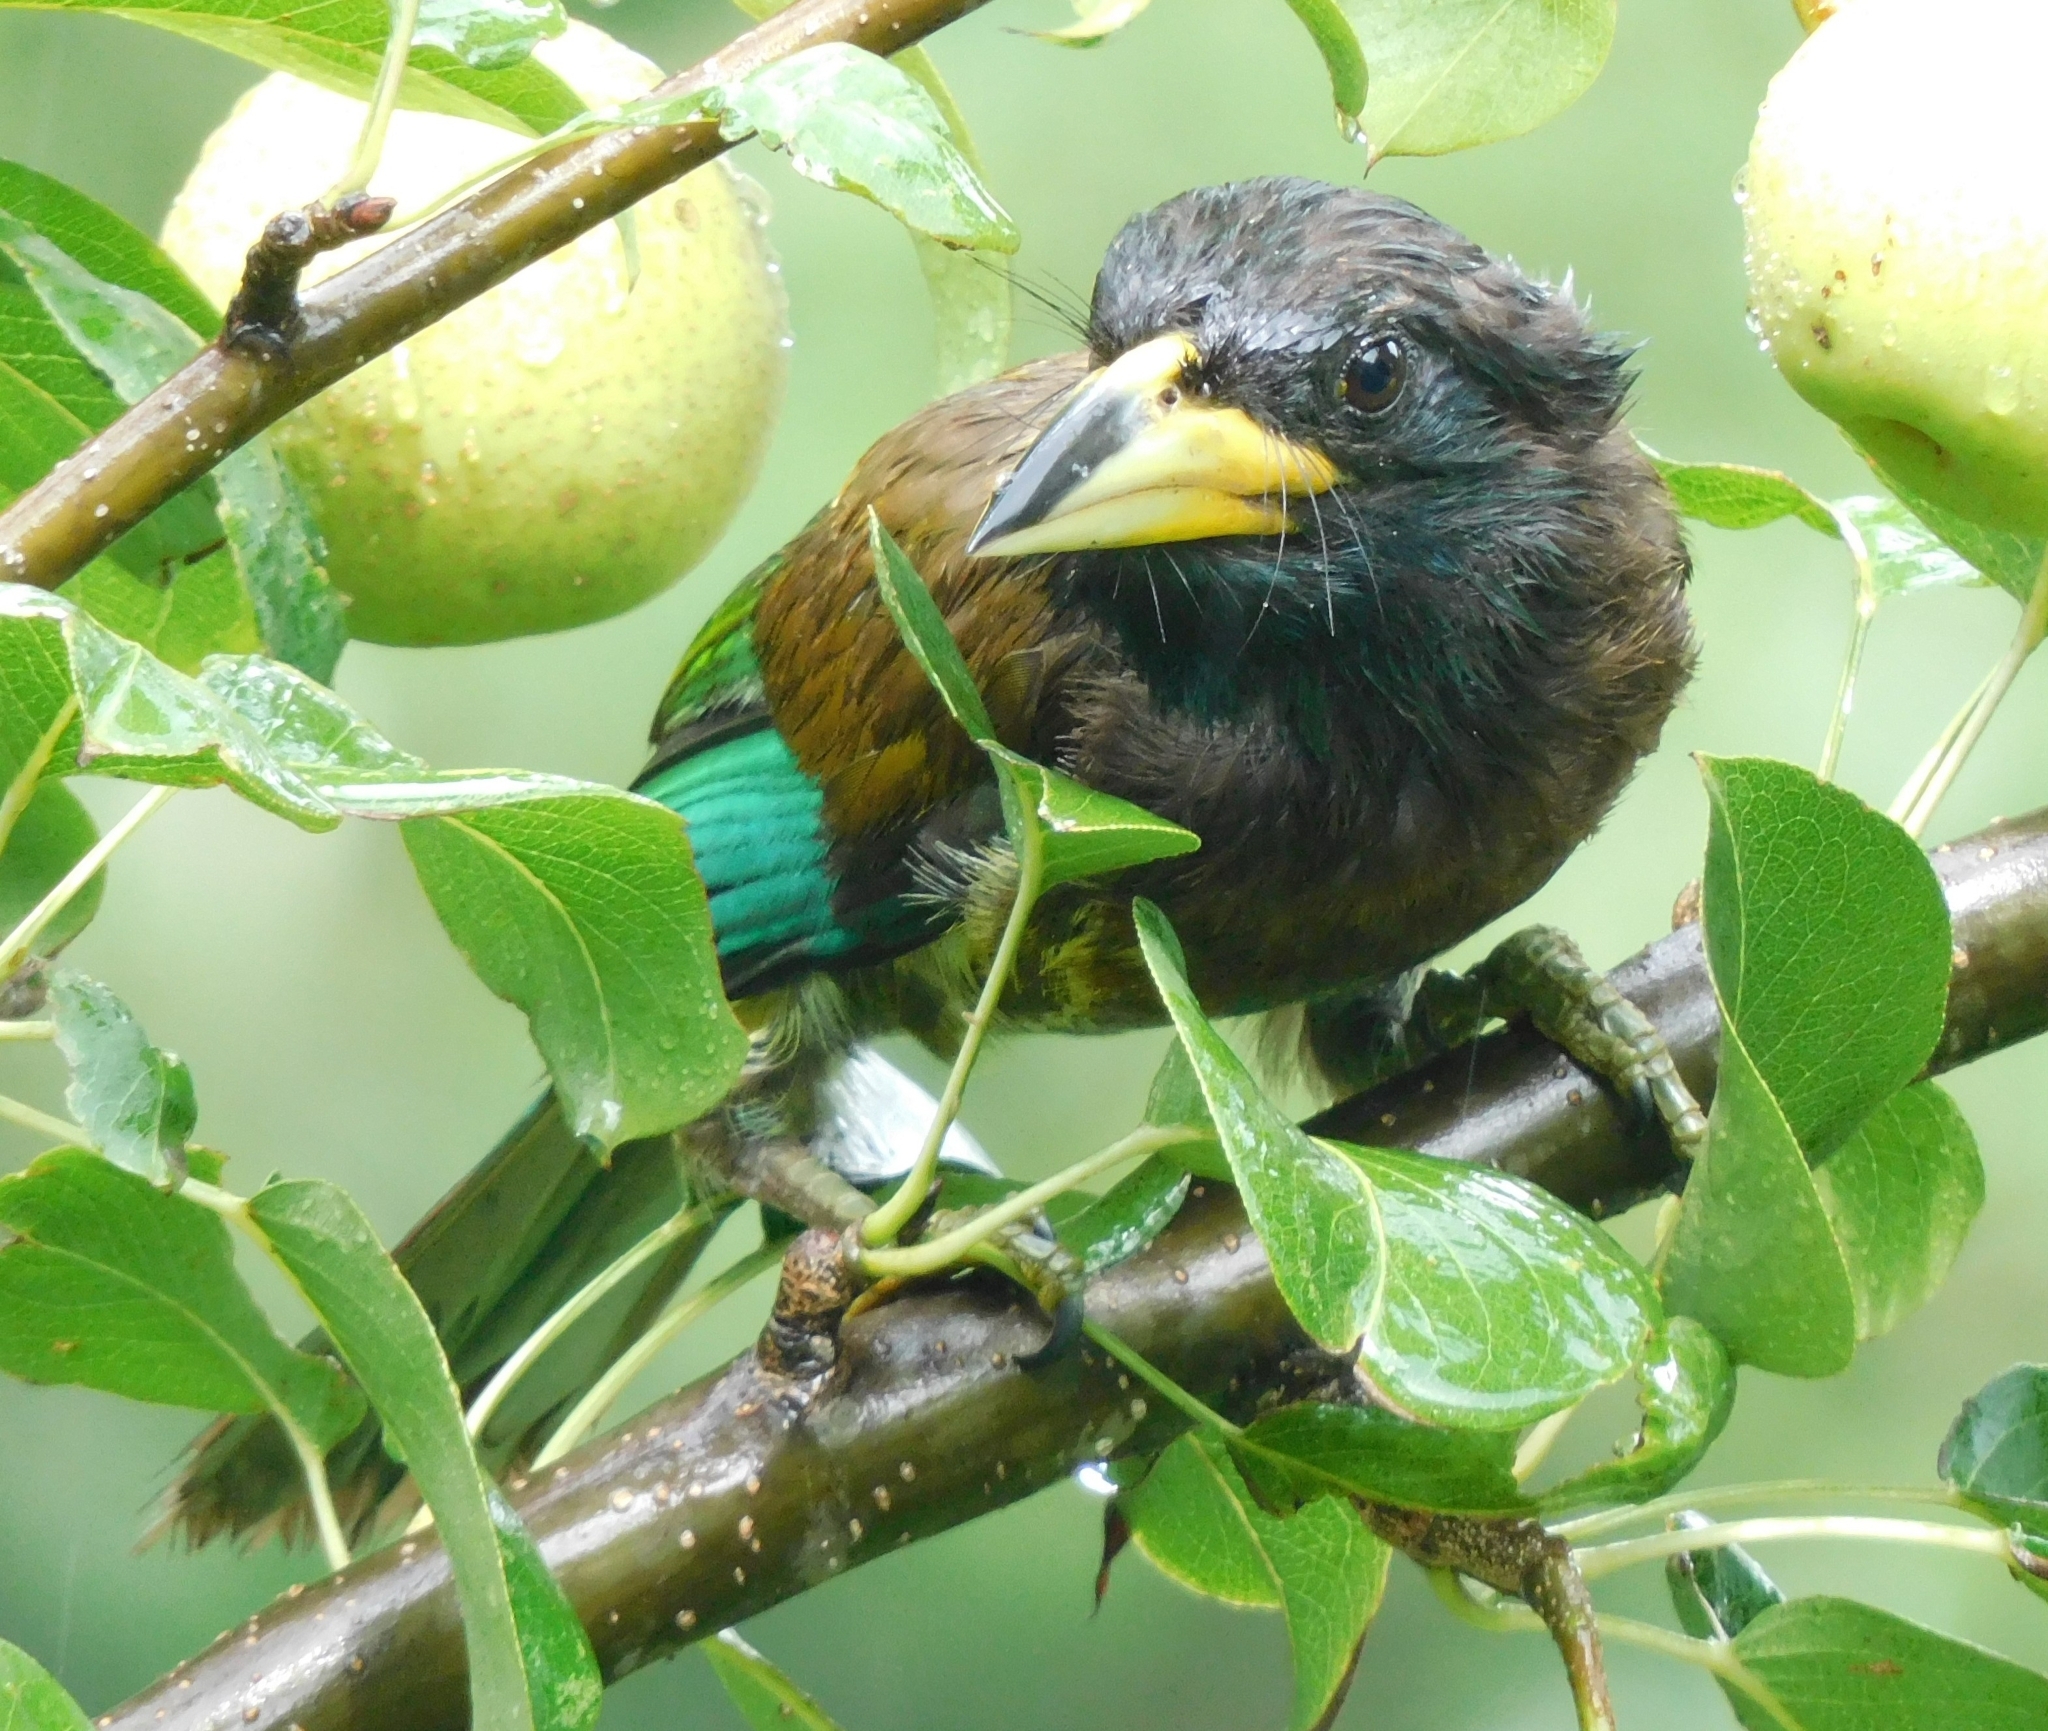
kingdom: Animalia
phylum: Chordata
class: Aves
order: Piciformes
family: Megalaimidae
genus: Psilopogon
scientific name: Psilopogon virens
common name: Great barbet
